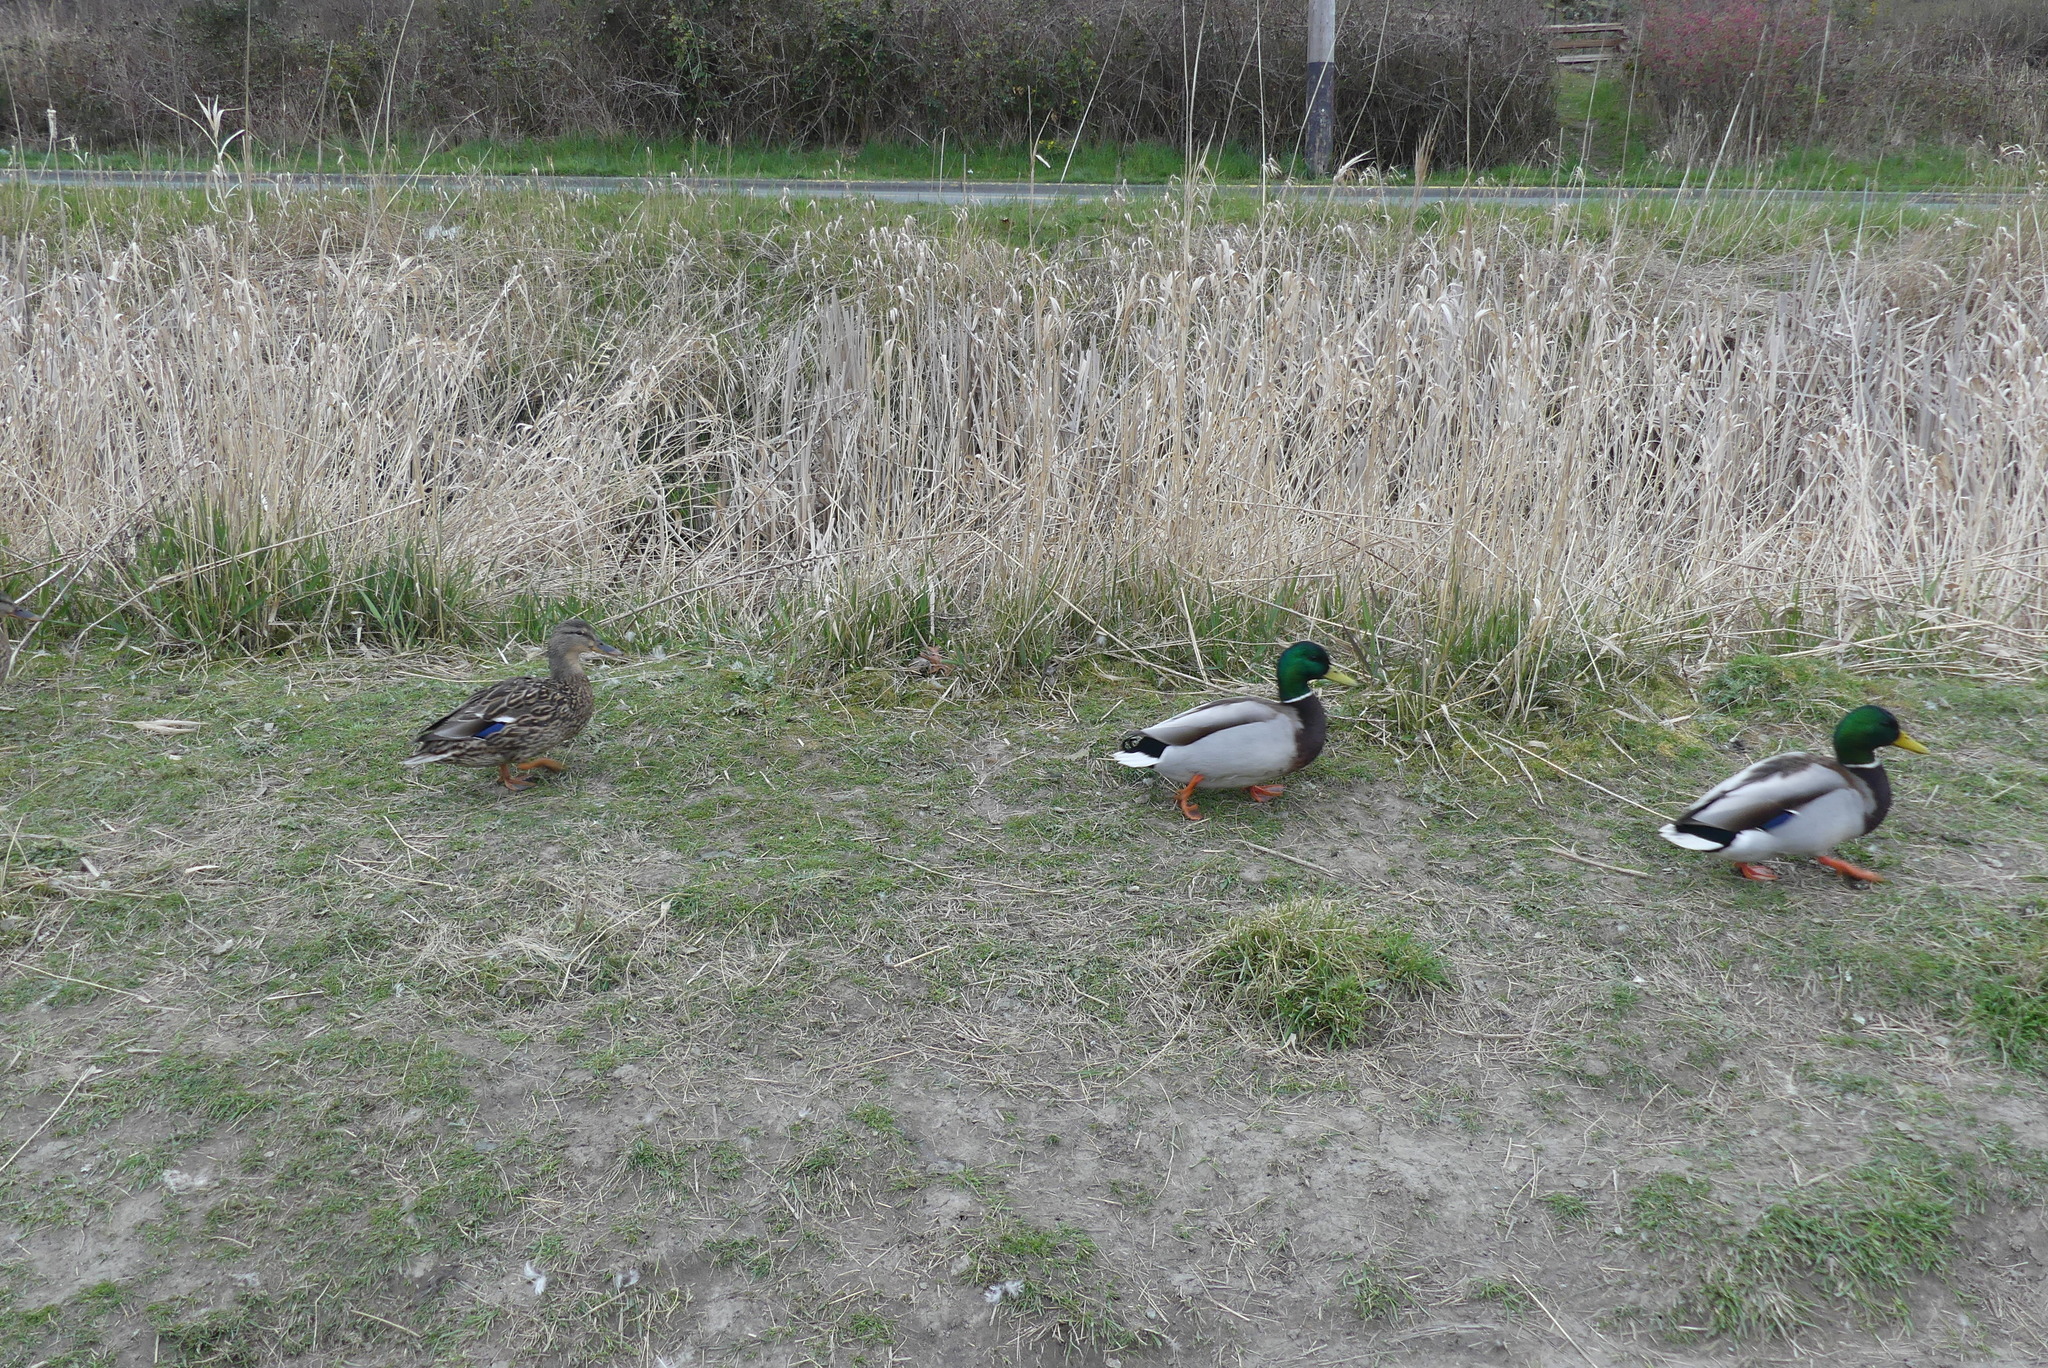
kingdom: Animalia
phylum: Chordata
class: Aves
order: Anseriformes
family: Anatidae
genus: Anas
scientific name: Anas platyrhynchos
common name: Mallard
